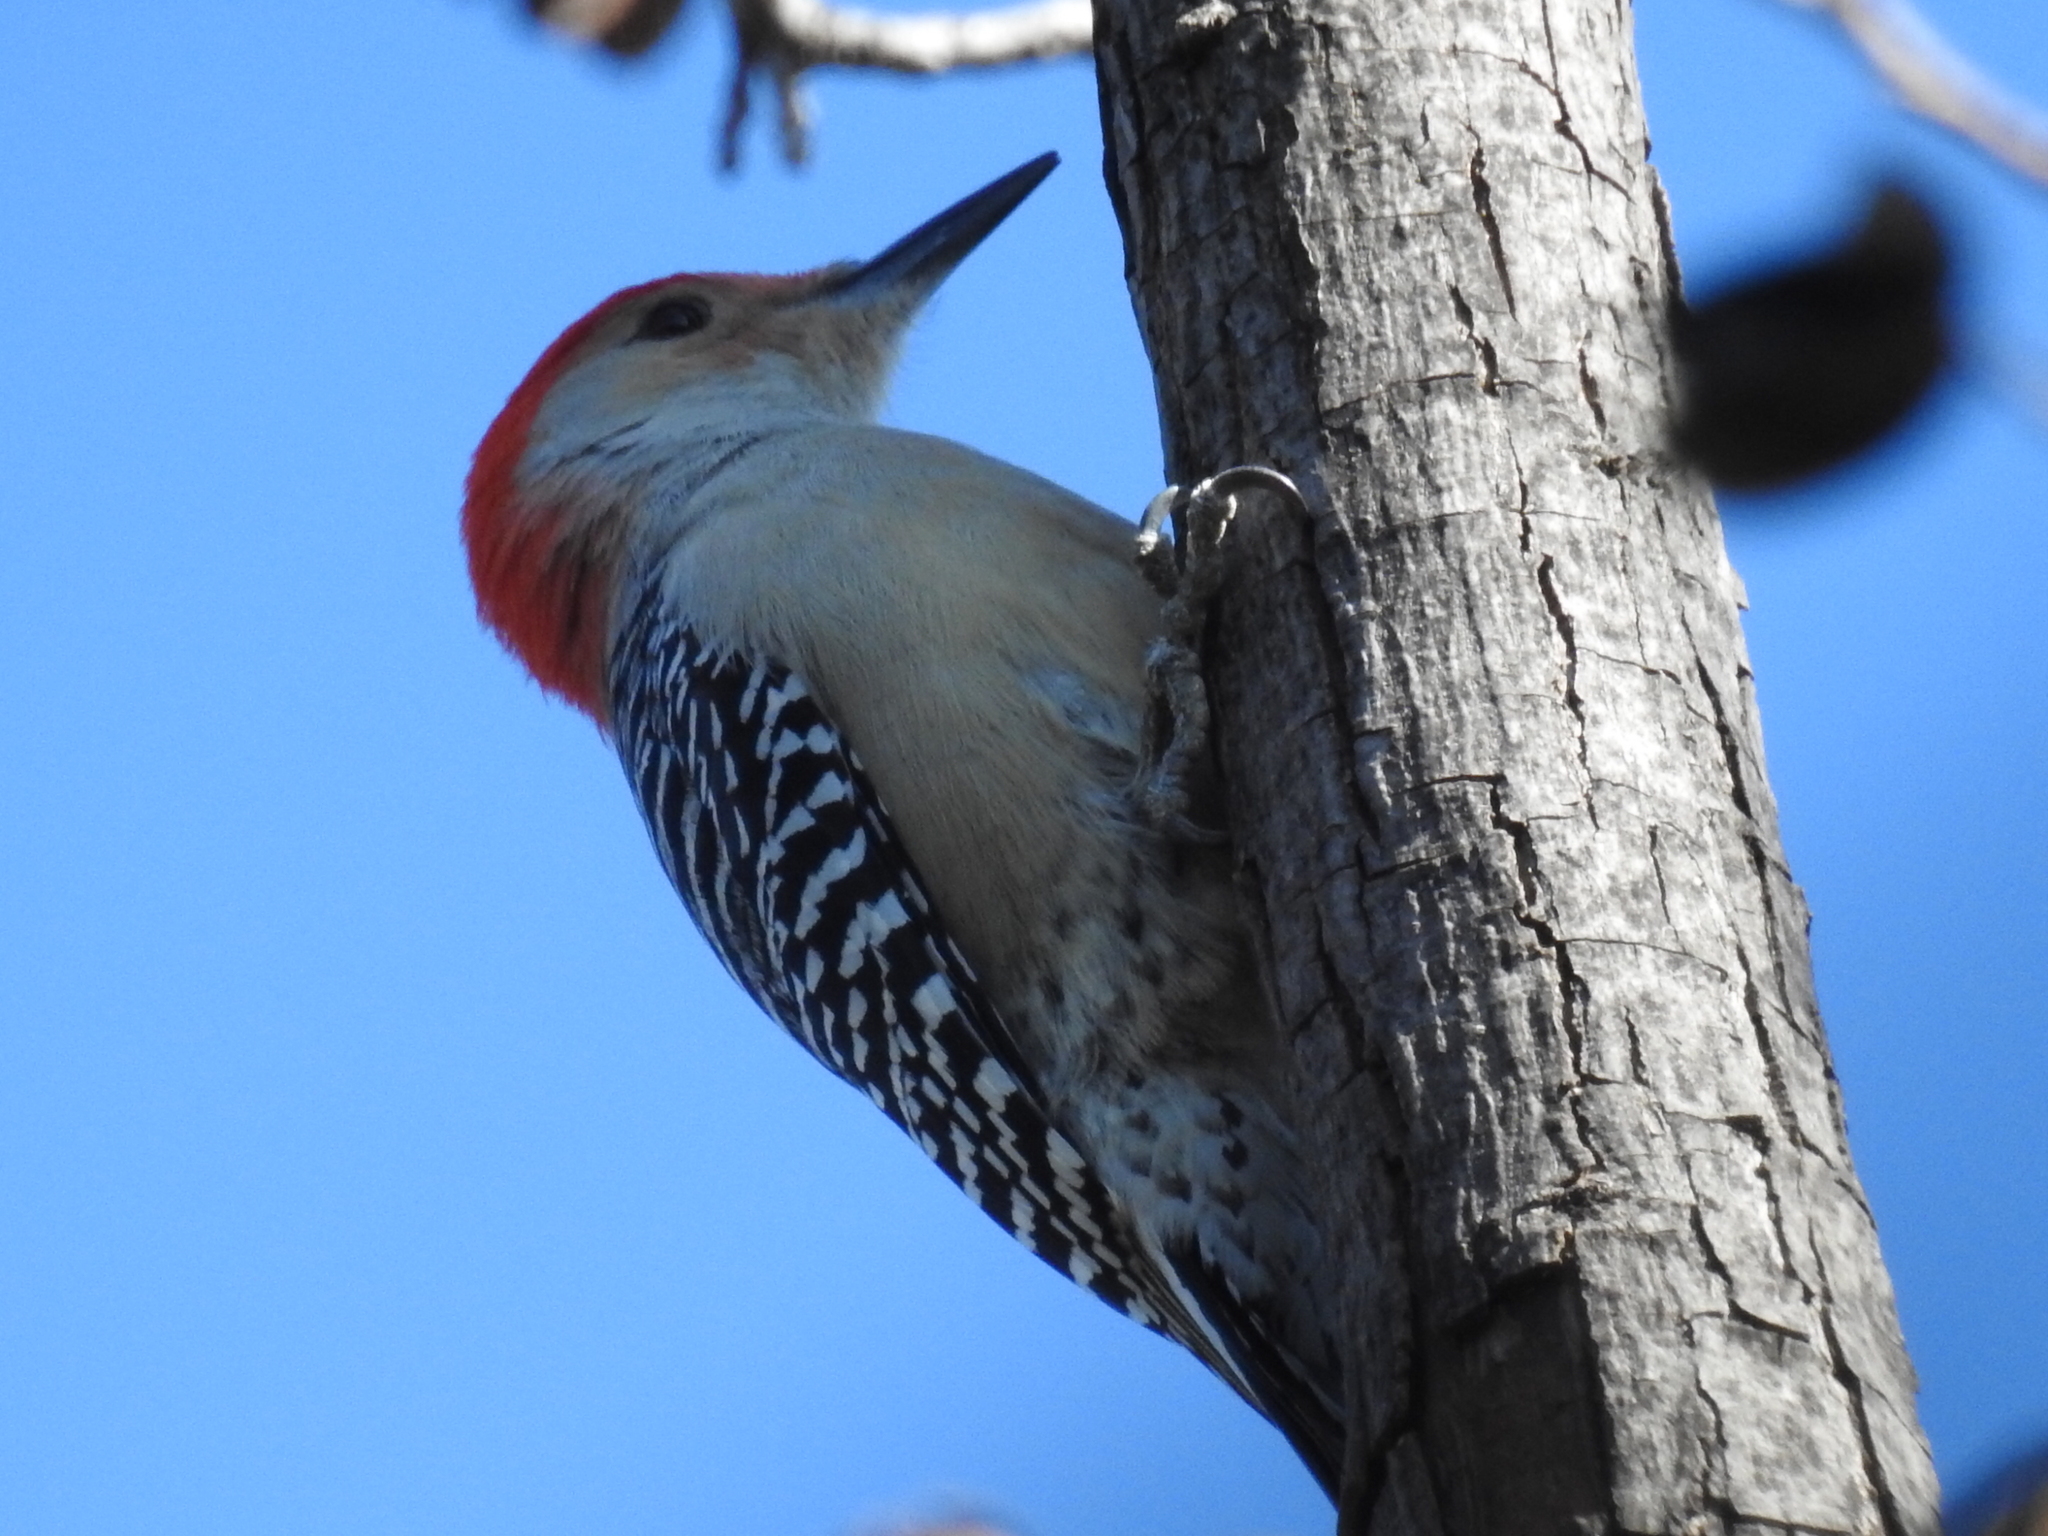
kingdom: Animalia
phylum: Chordata
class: Aves
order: Piciformes
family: Picidae
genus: Melanerpes
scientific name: Melanerpes carolinus
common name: Red-bellied woodpecker
